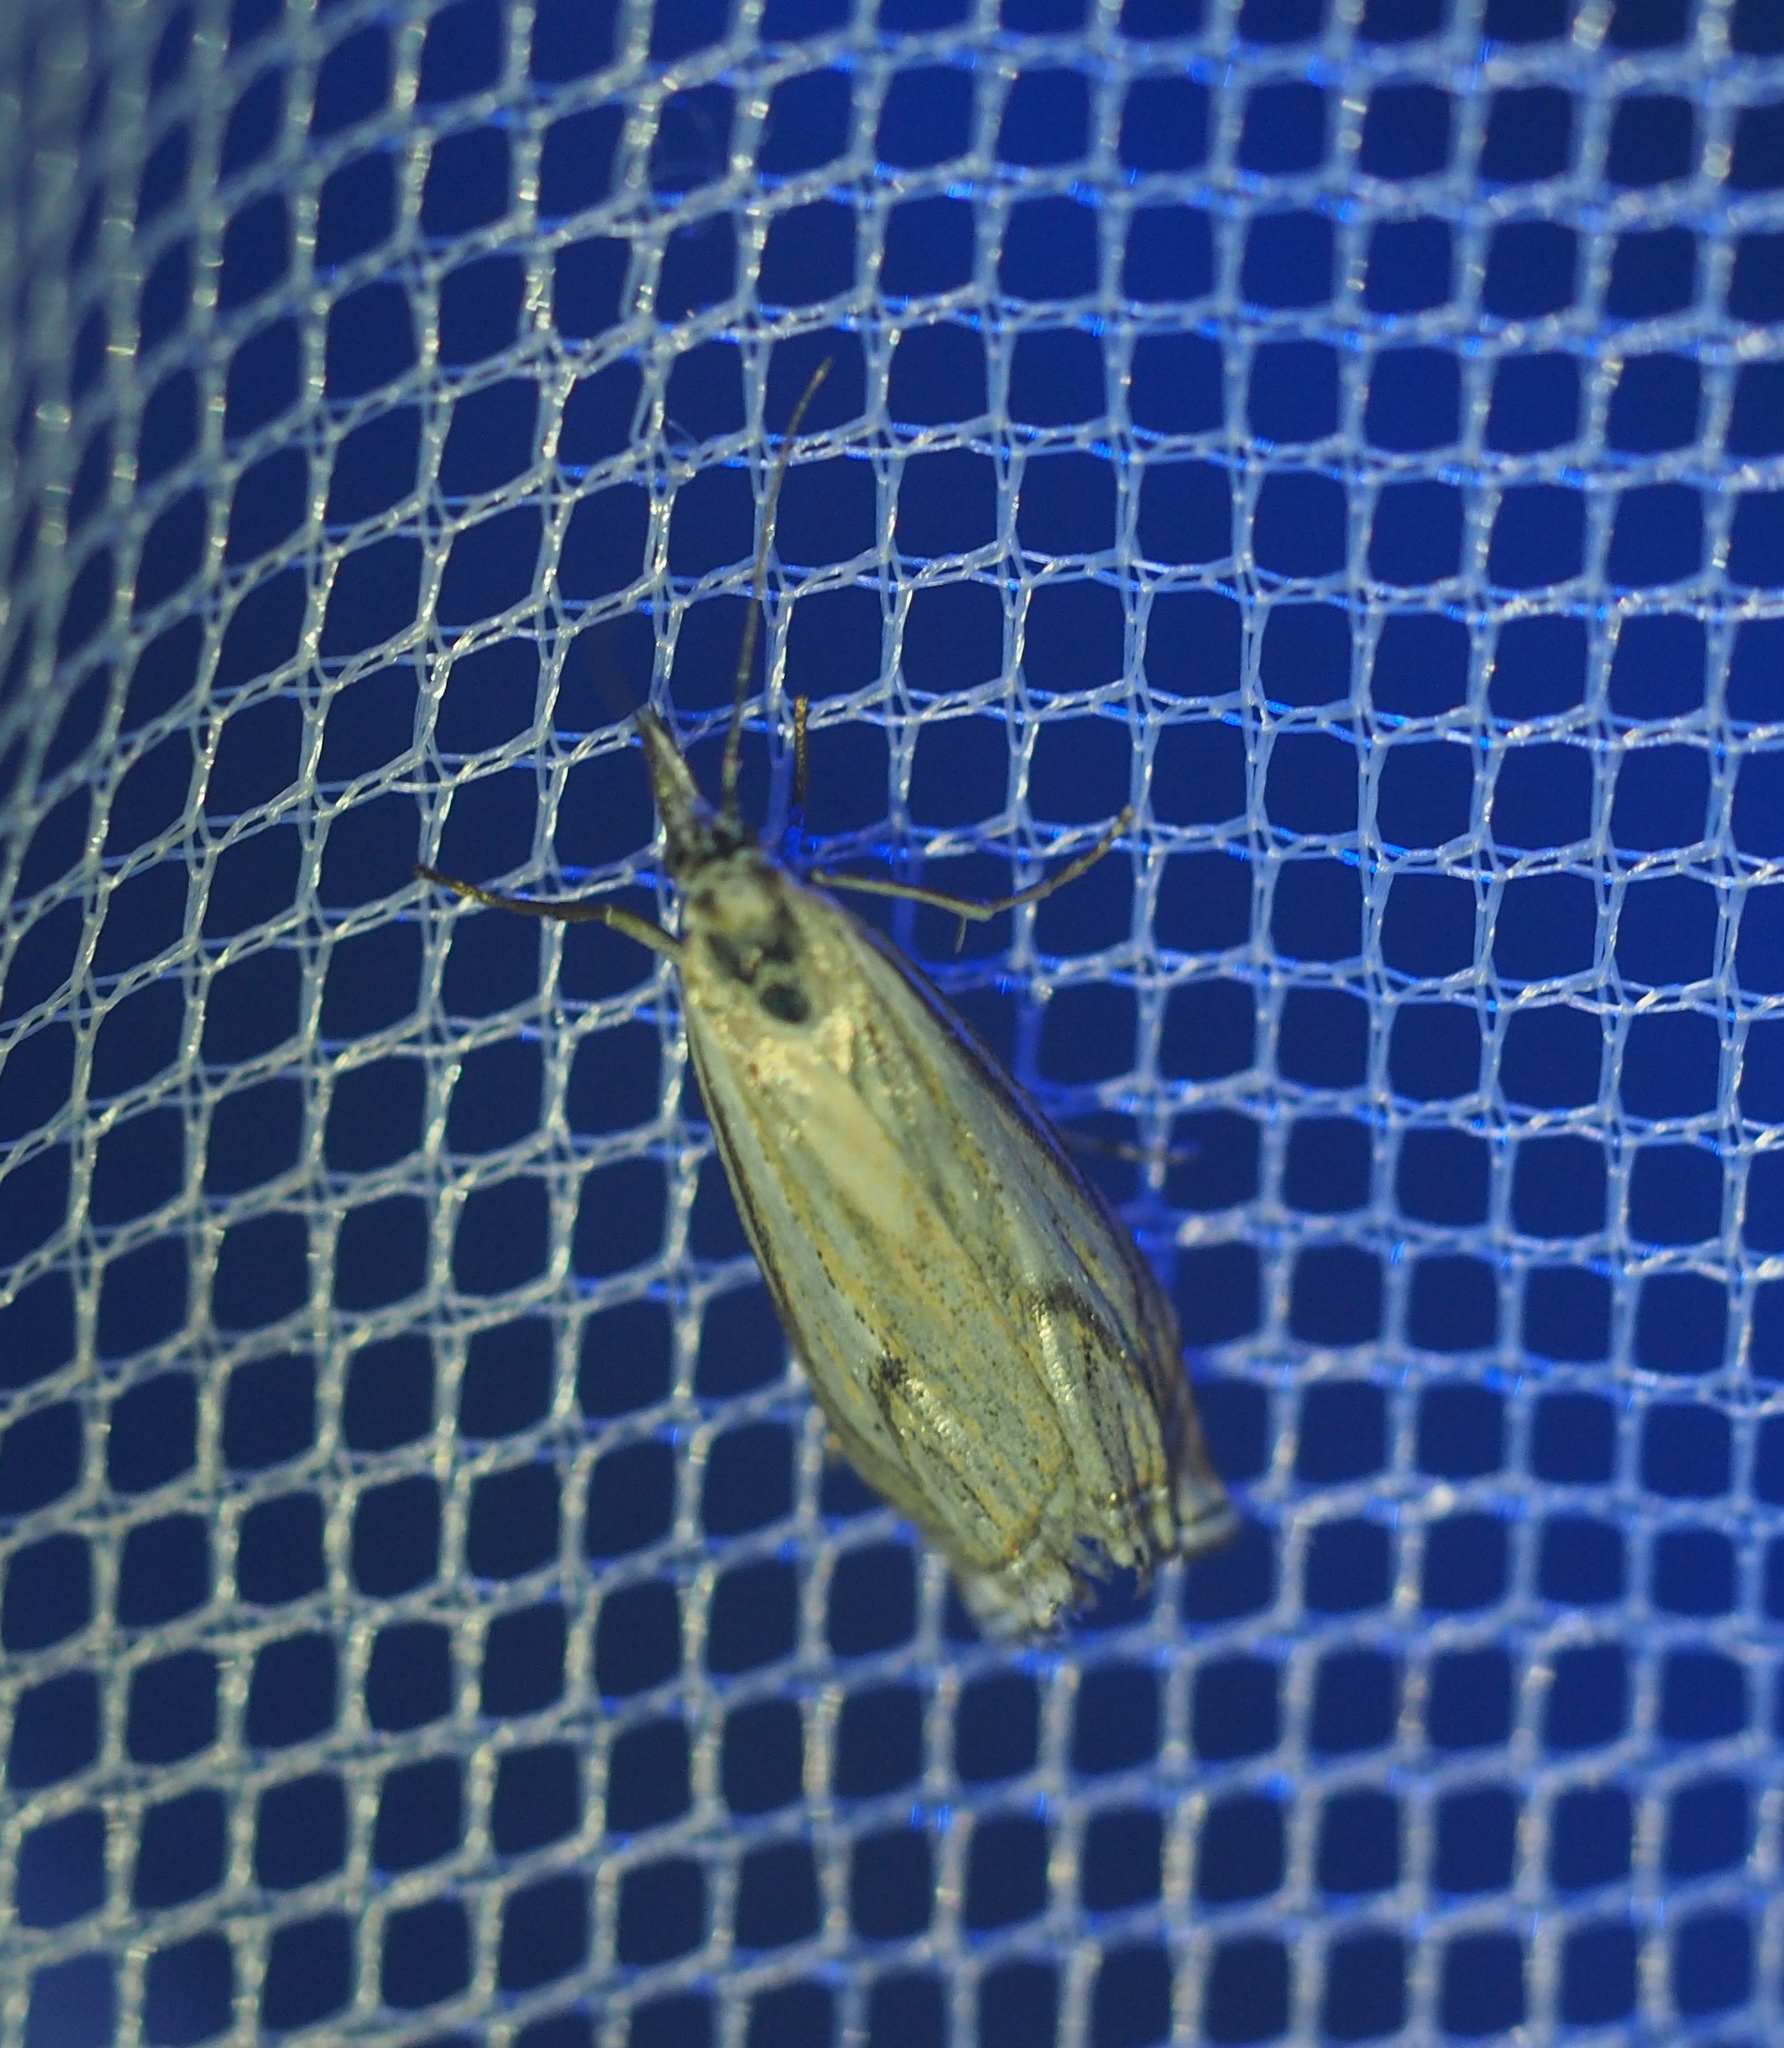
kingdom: Animalia
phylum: Arthropoda
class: Insecta
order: Lepidoptera
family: Crambidae
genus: Crambus
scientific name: Crambus nemorella
